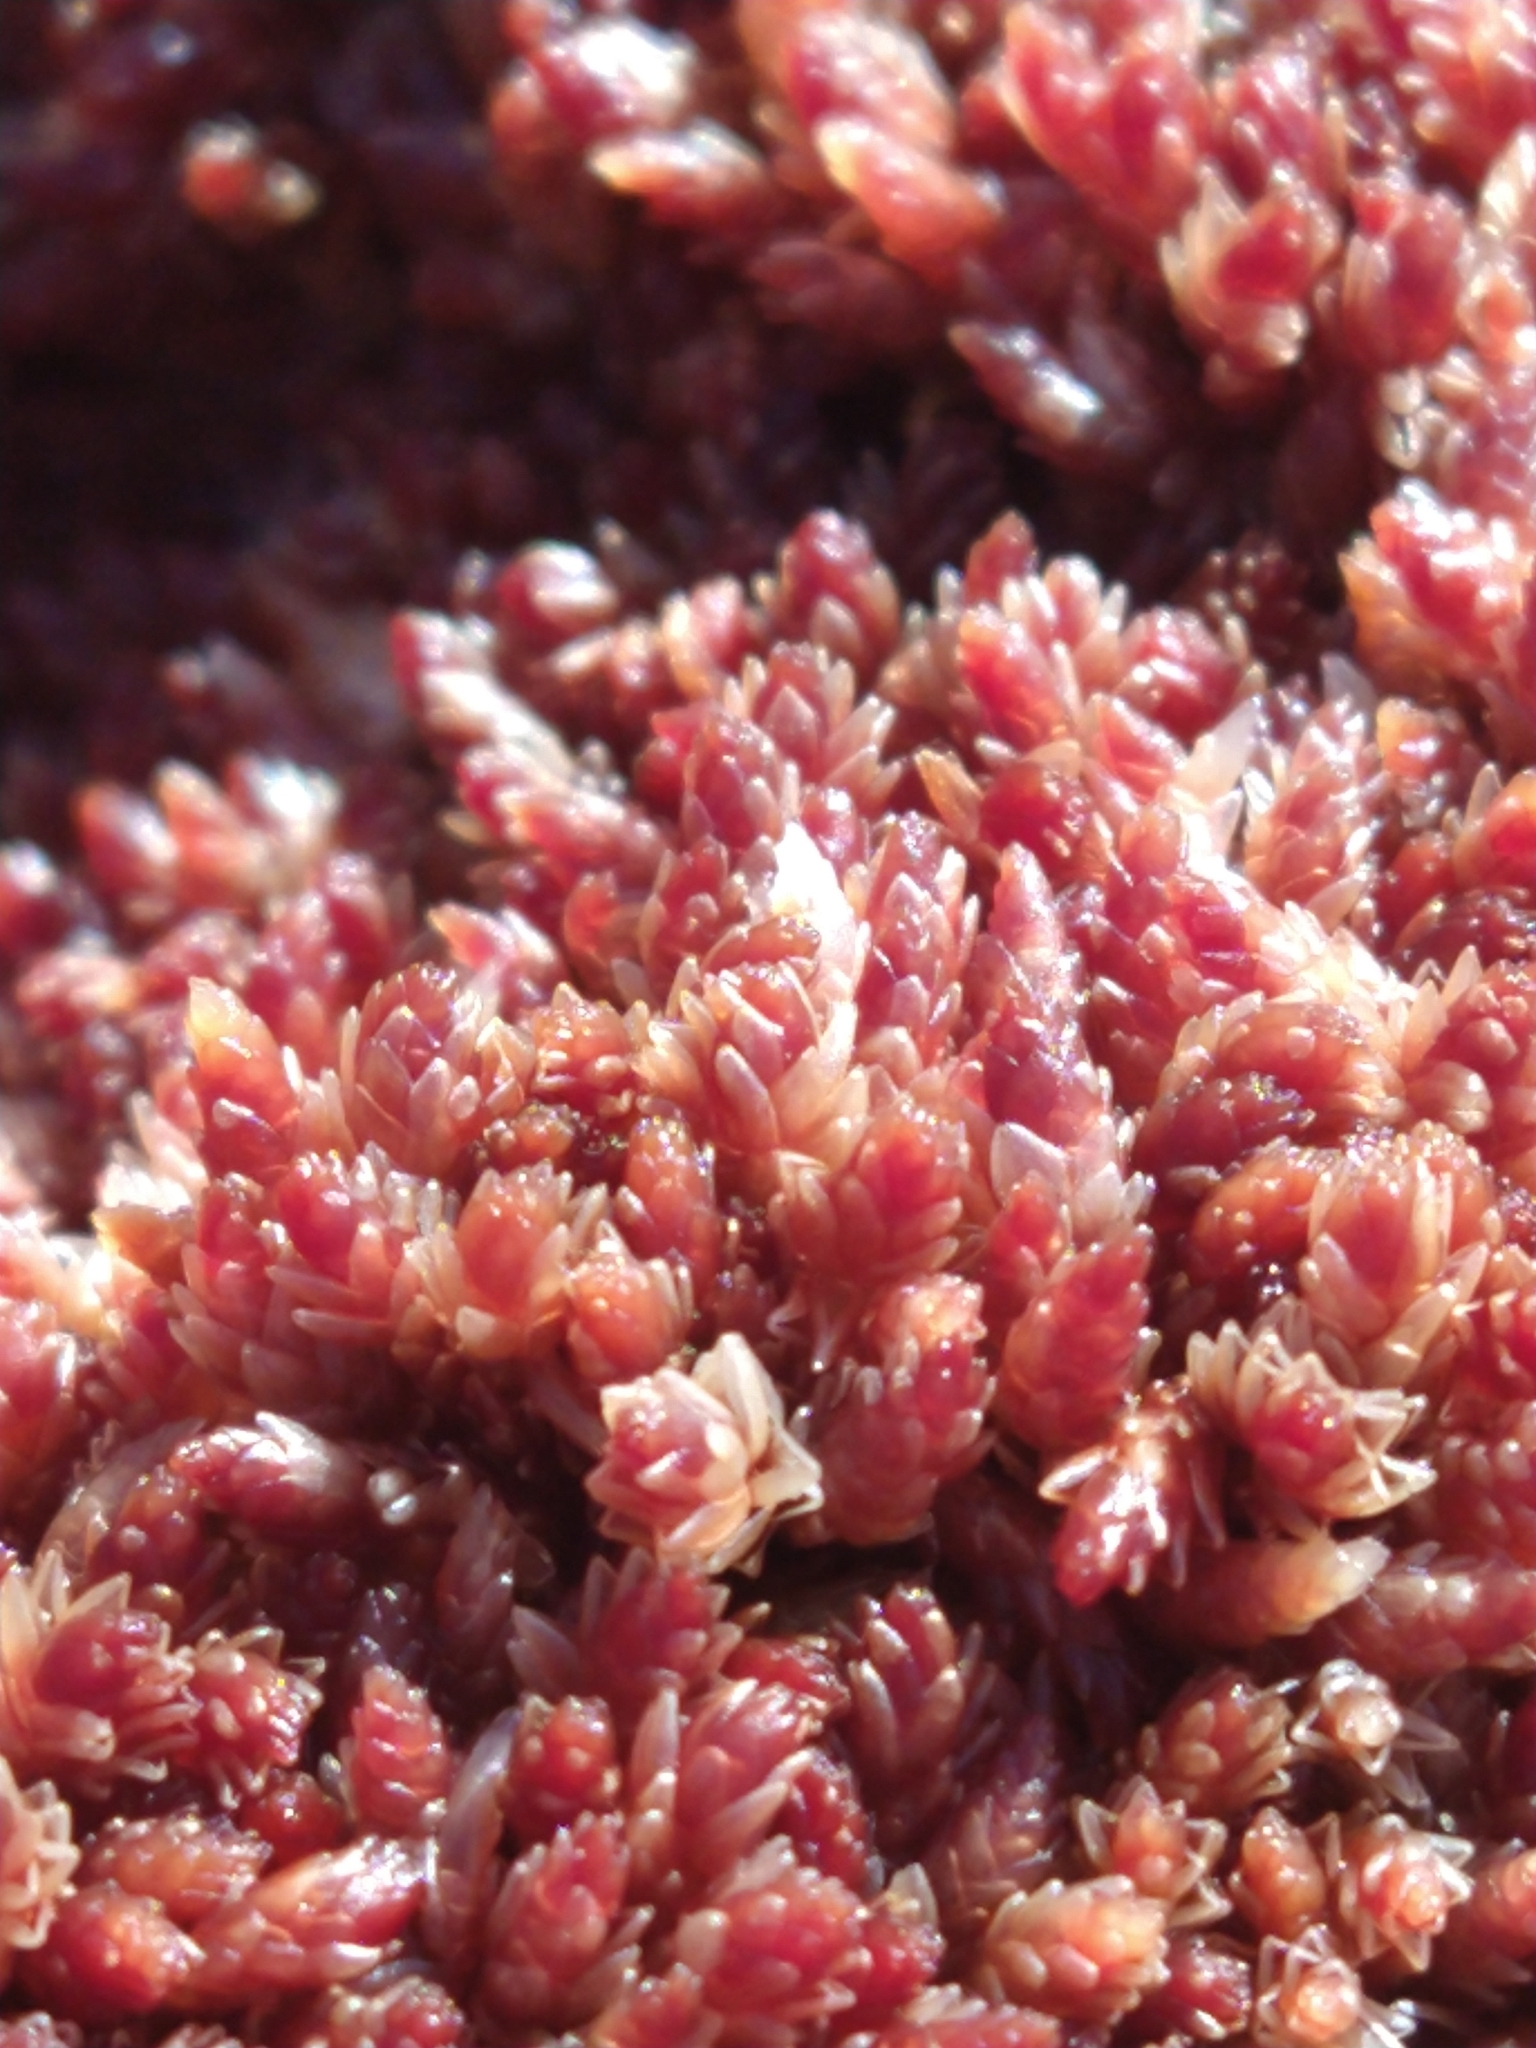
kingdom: Plantae
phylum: Bryophyta
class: Sphagnopsida
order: Sphagnales
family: Sphagnaceae
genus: Sphagnum
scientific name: Sphagnum magellanicum
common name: Magellan's peat moss
